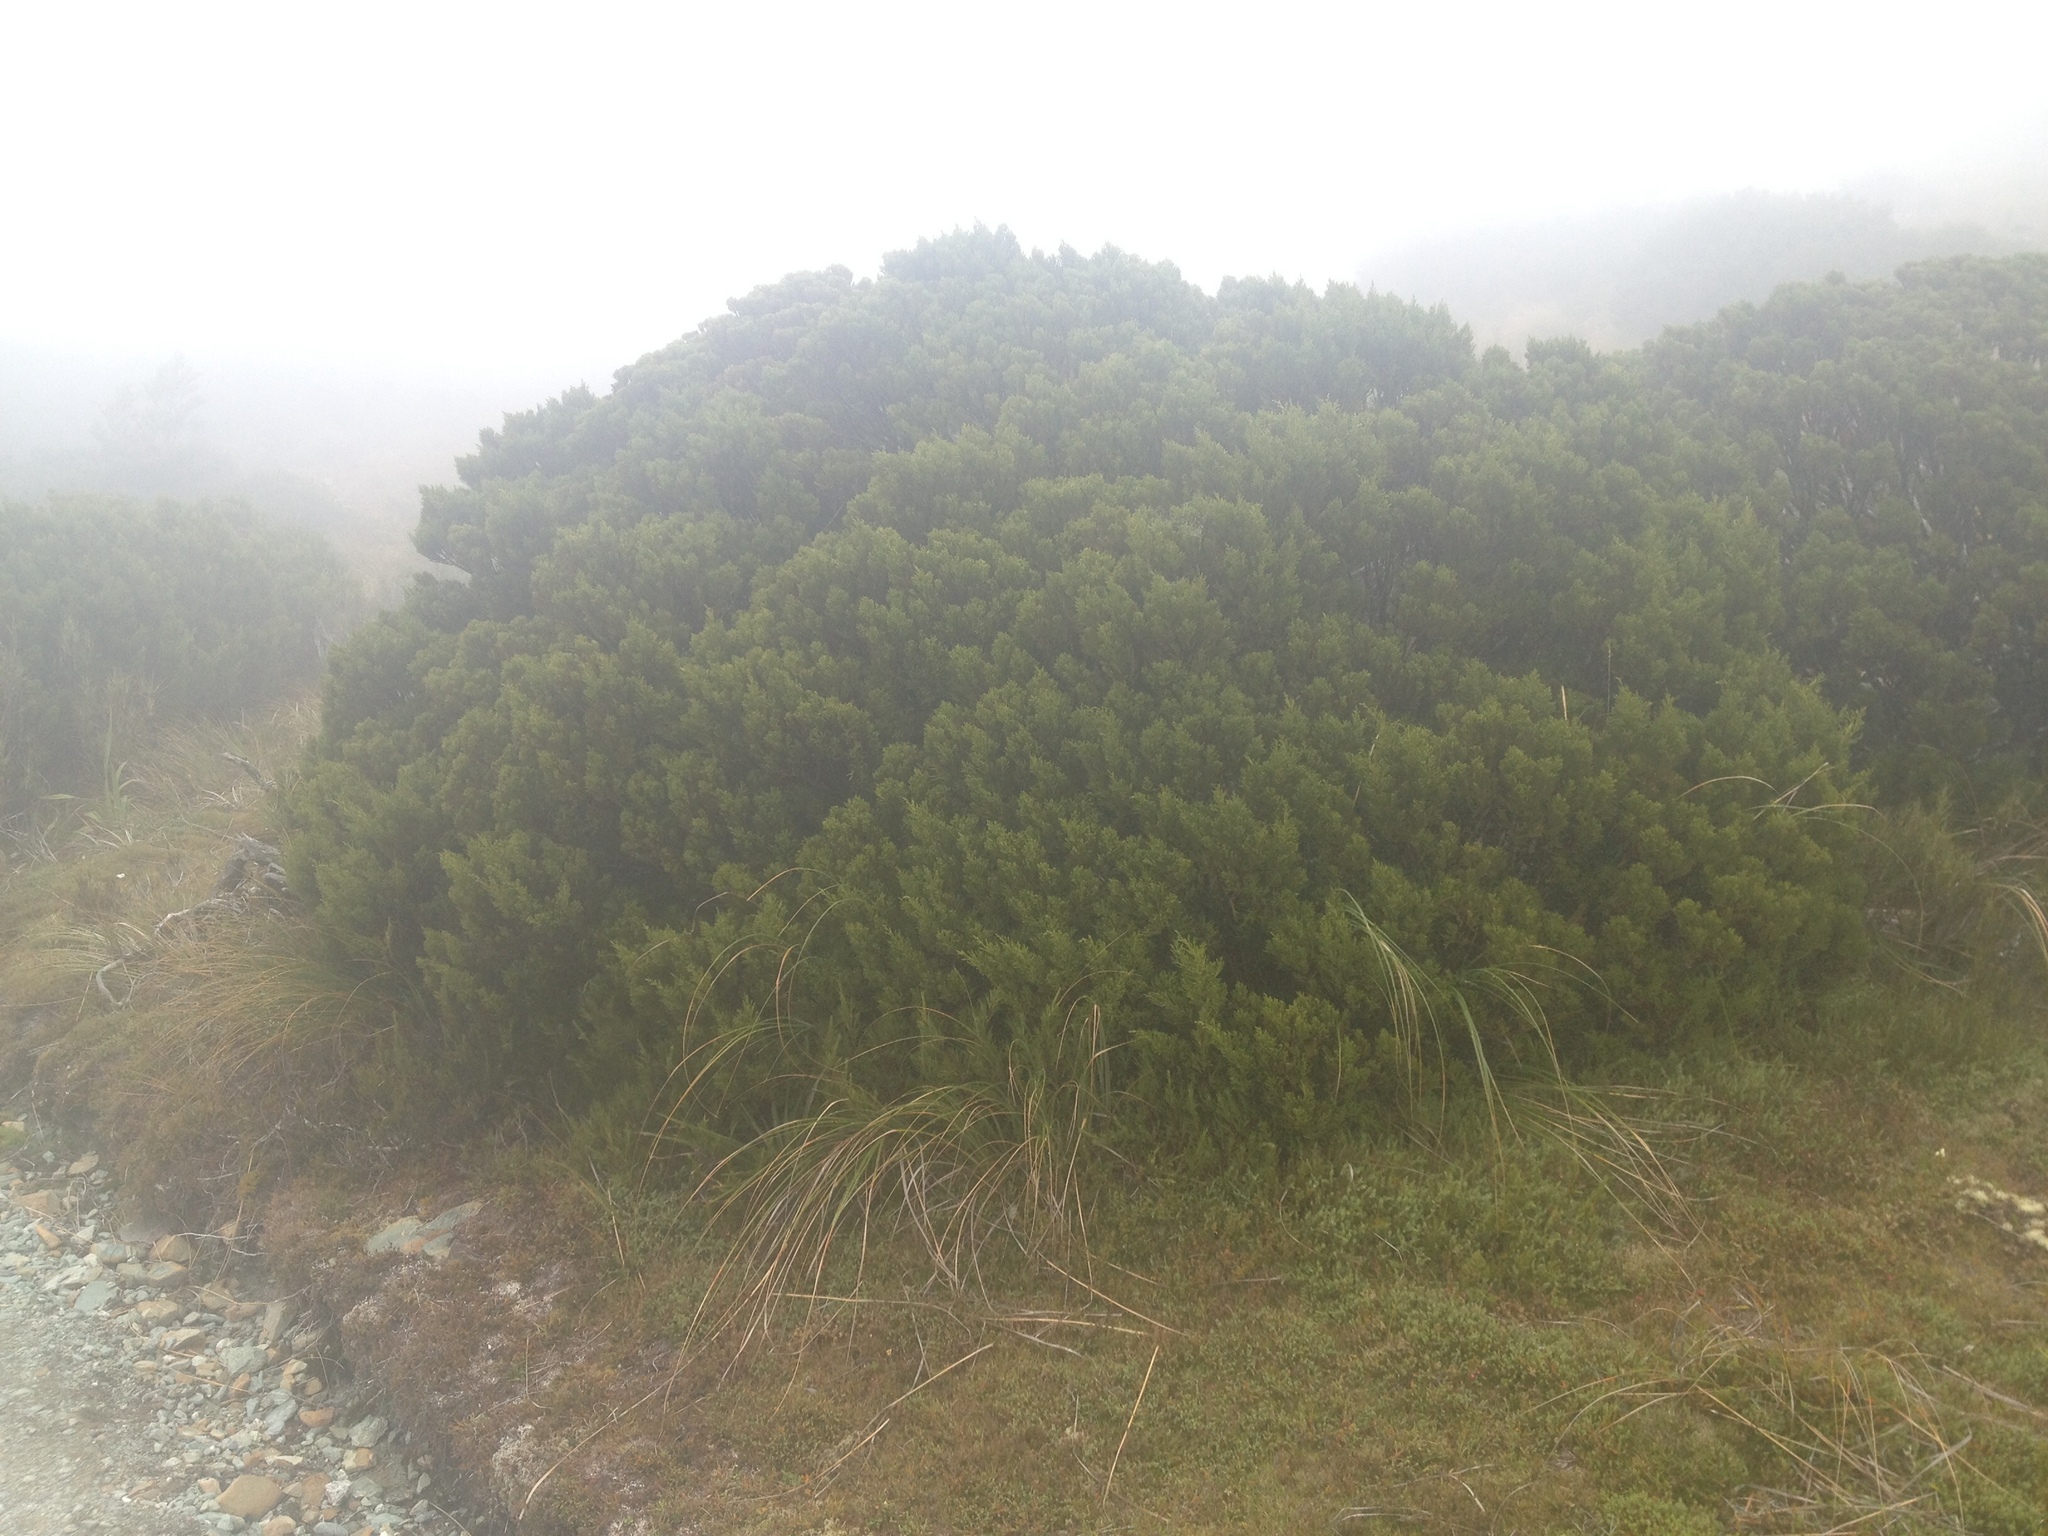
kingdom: Plantae
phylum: Tracheophyta
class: Pinopsida
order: Pinales
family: Podocarpaceae
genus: Halocarpus
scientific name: Halocarpus biformis
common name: Alpine tarwood
